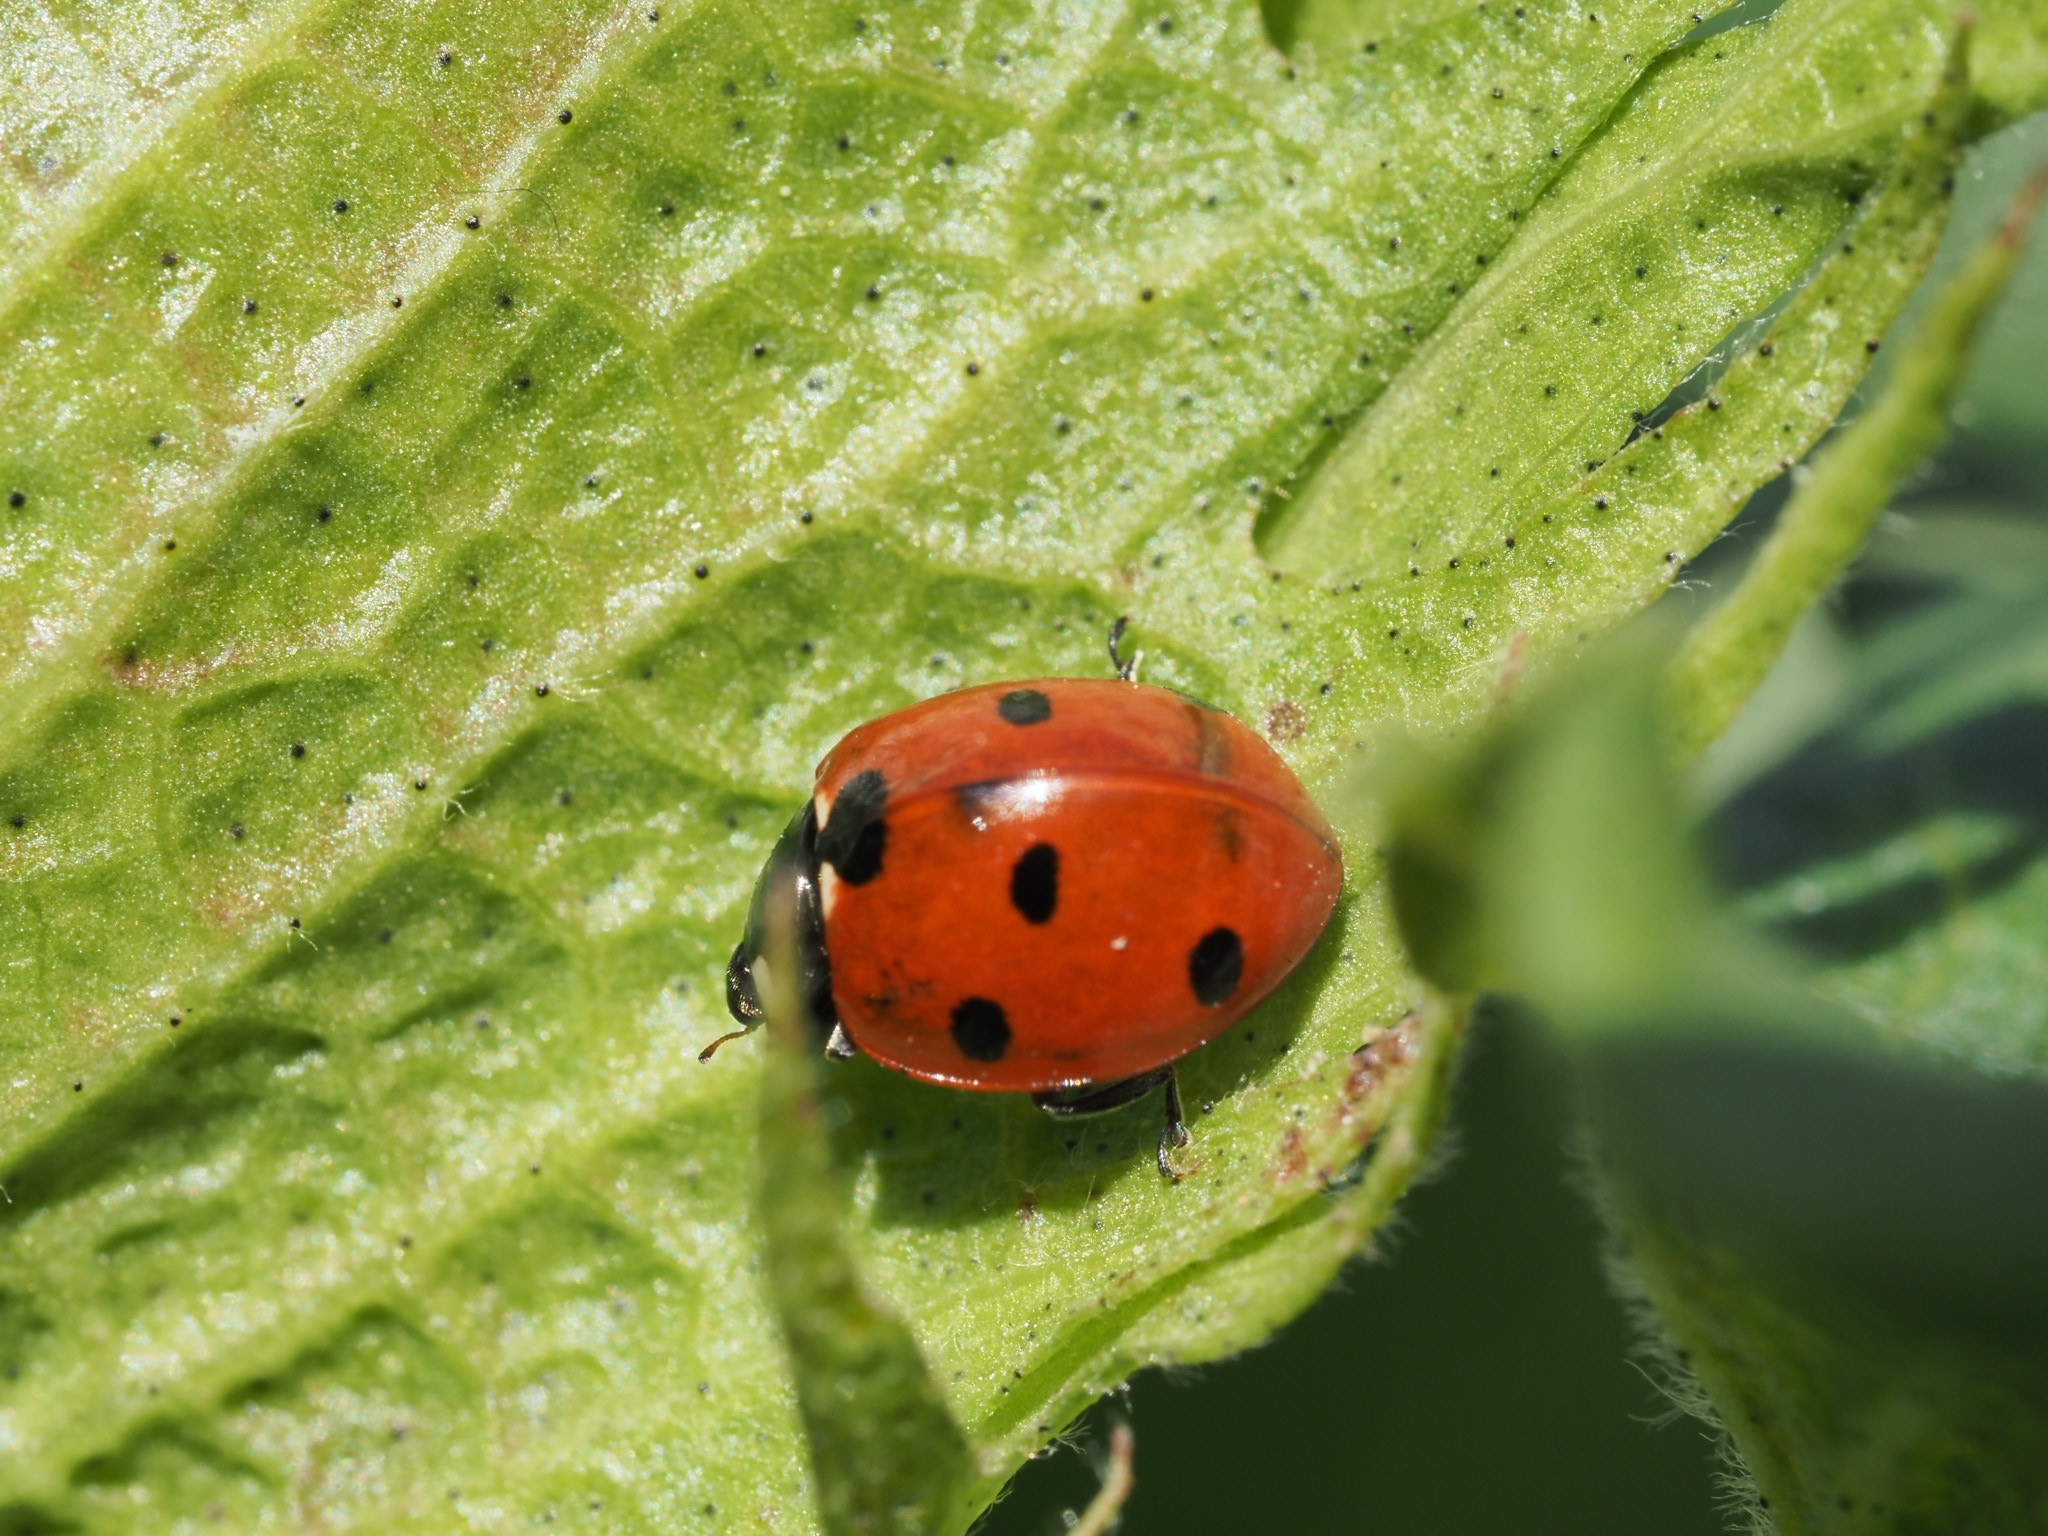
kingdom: Animalia
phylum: Arthropoda
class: Insecta
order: Coleoptera
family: Coccinellidae
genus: Coccinella
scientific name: Coccinella septempunctata
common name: Sevenspotted lady beetle
